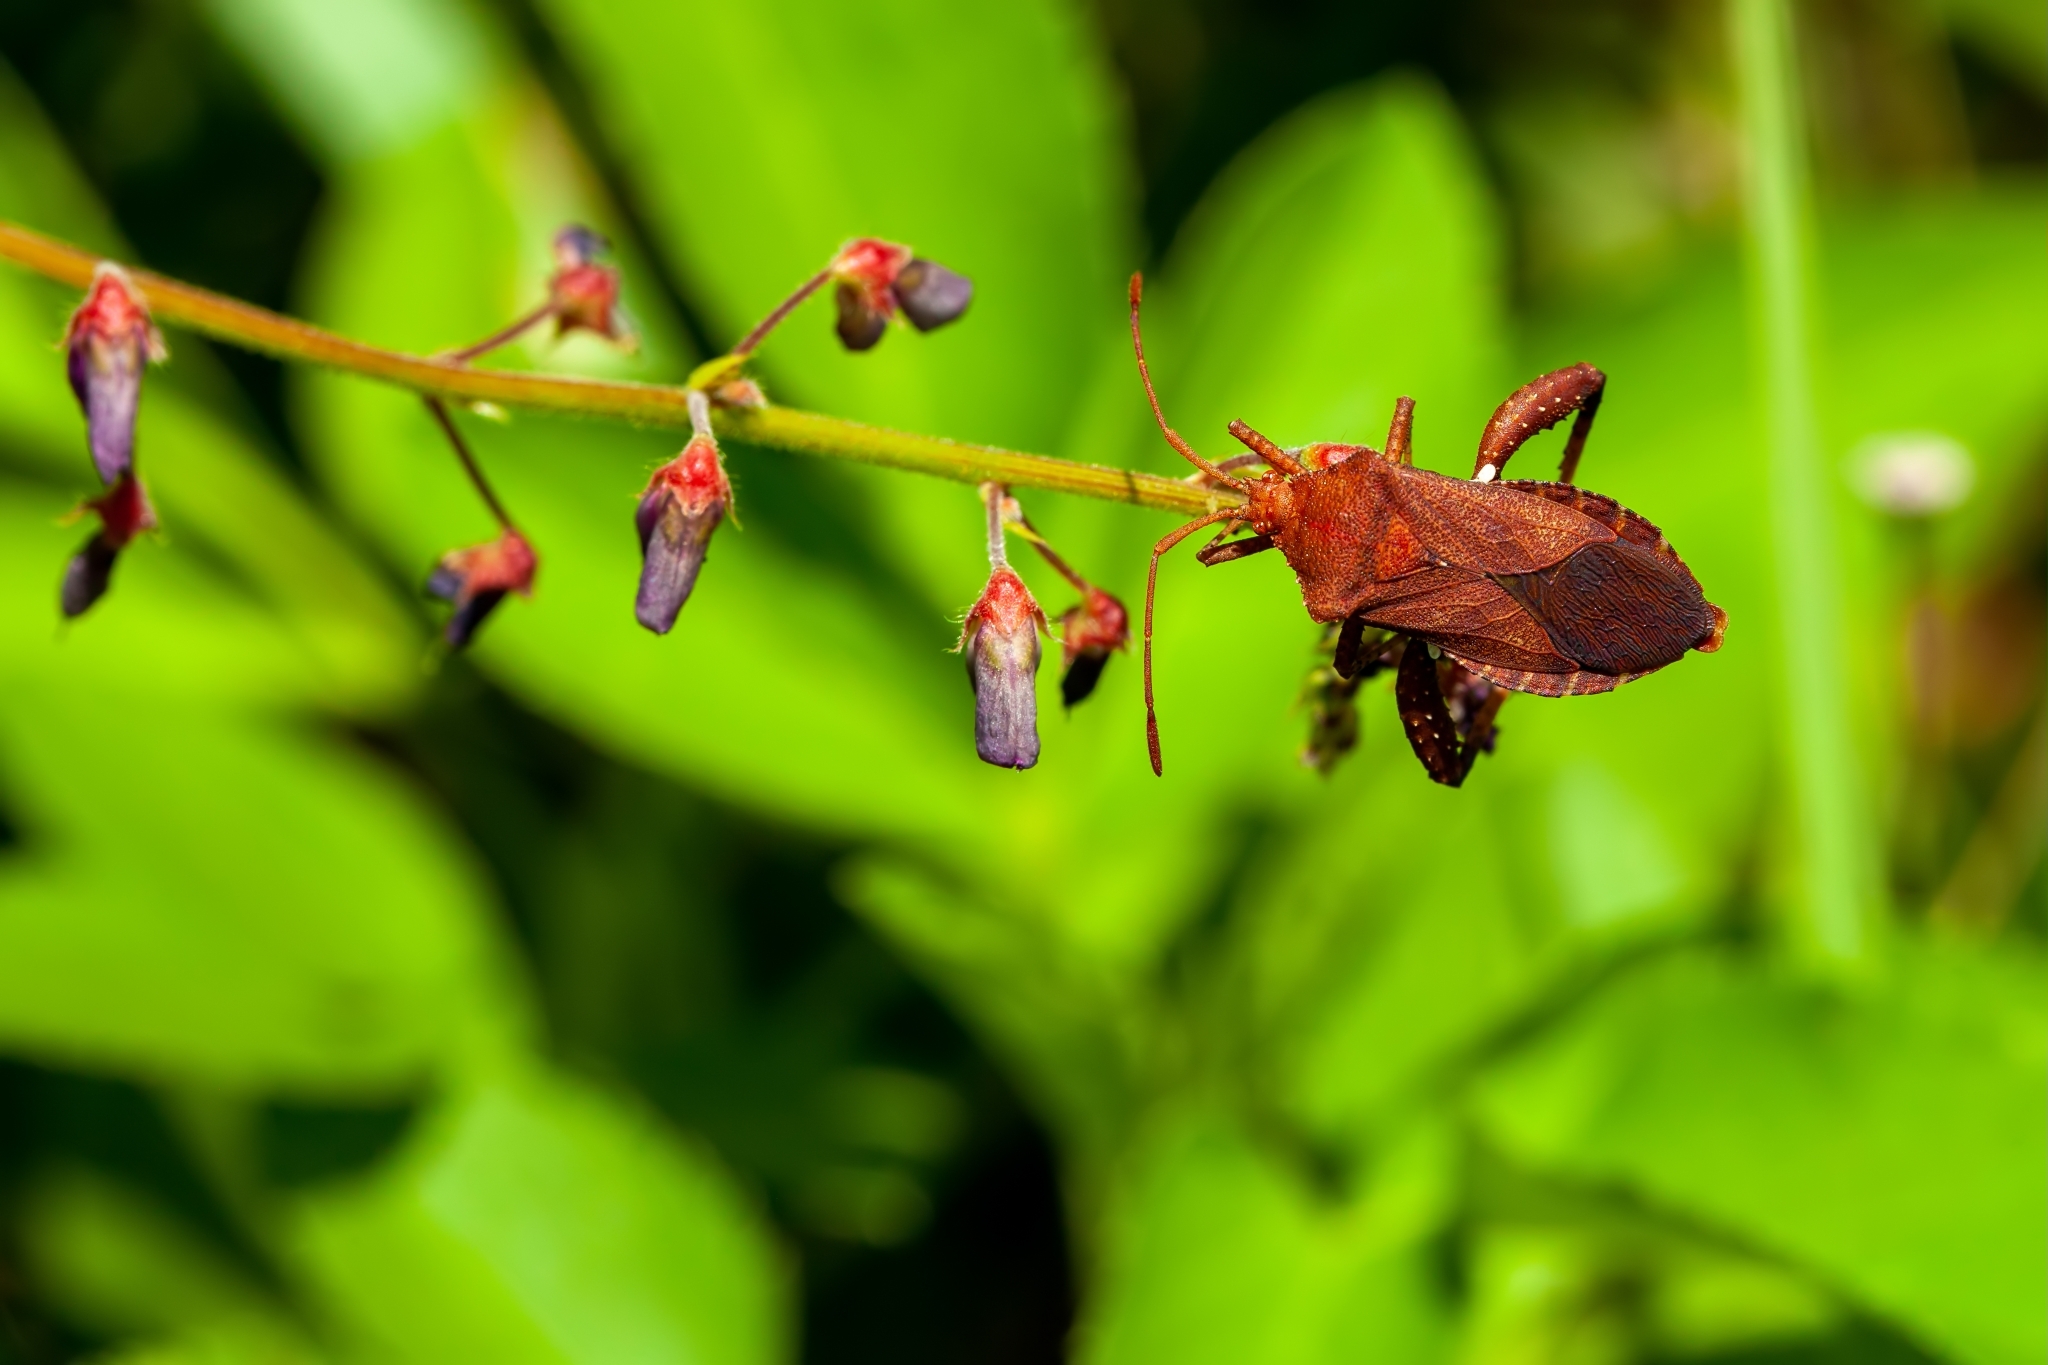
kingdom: Animalia
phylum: Arthropoda
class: Insecta
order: Hemiptera
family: Coreidae
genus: Euthochtha
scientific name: Euthochtha galeator
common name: Helmeted squash bug
